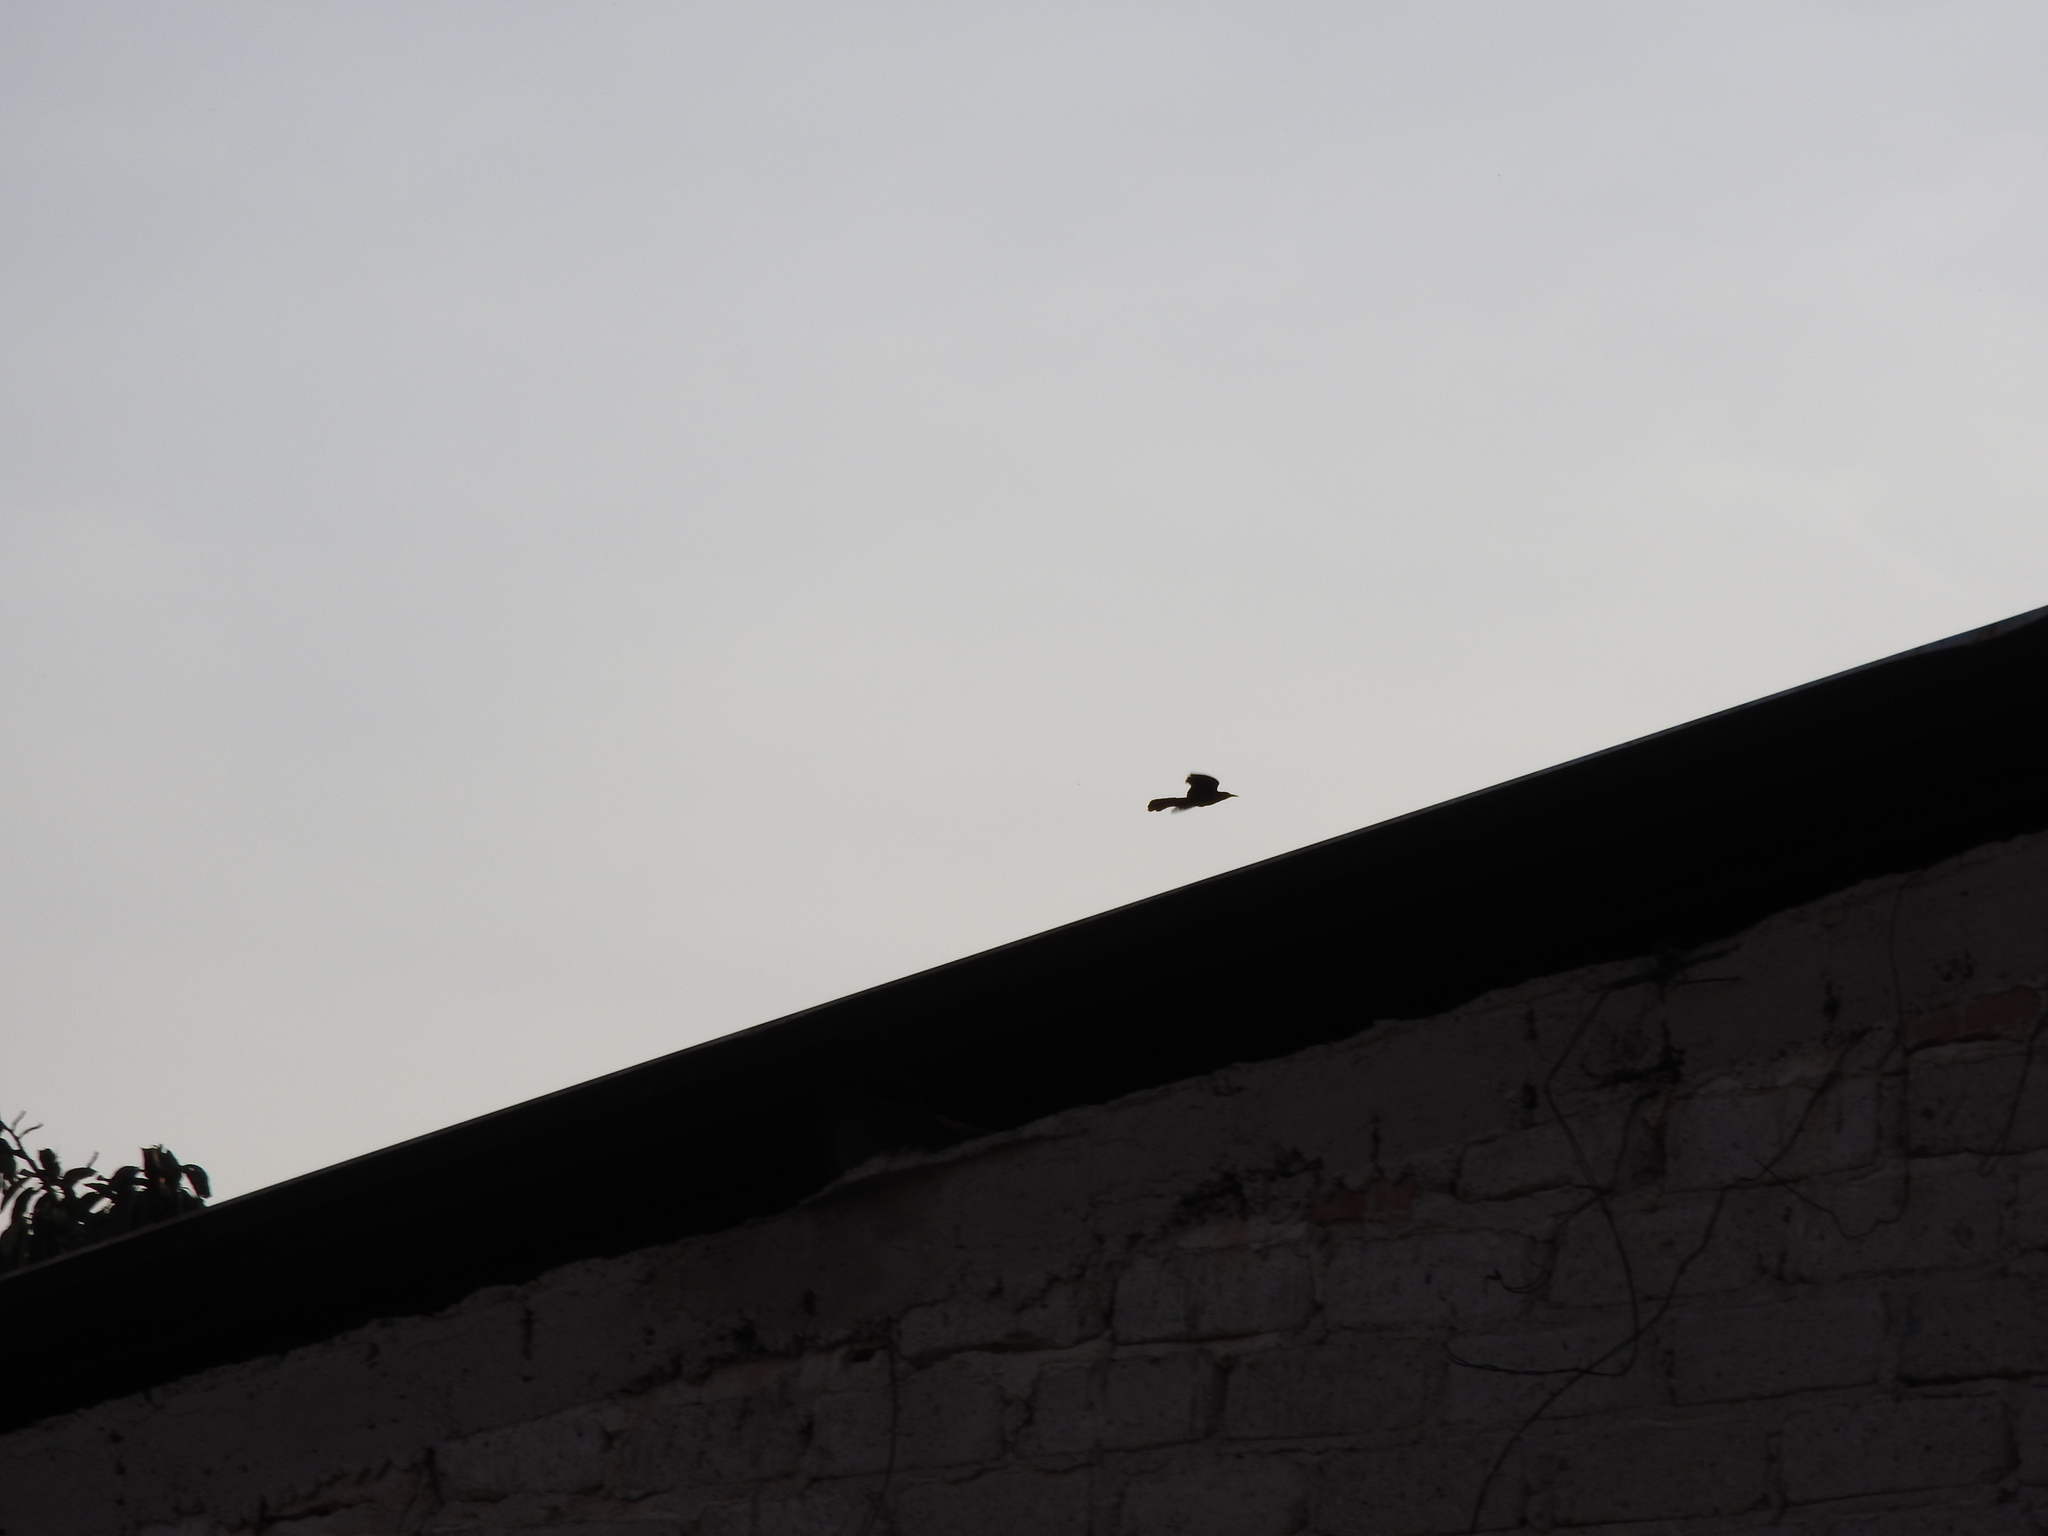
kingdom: Animalia
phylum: Chordata
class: Aves
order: Passeriformes
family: Icteridae
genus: Quiscalus
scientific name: Quiscalus mexicanus
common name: Great-tailed grackle
